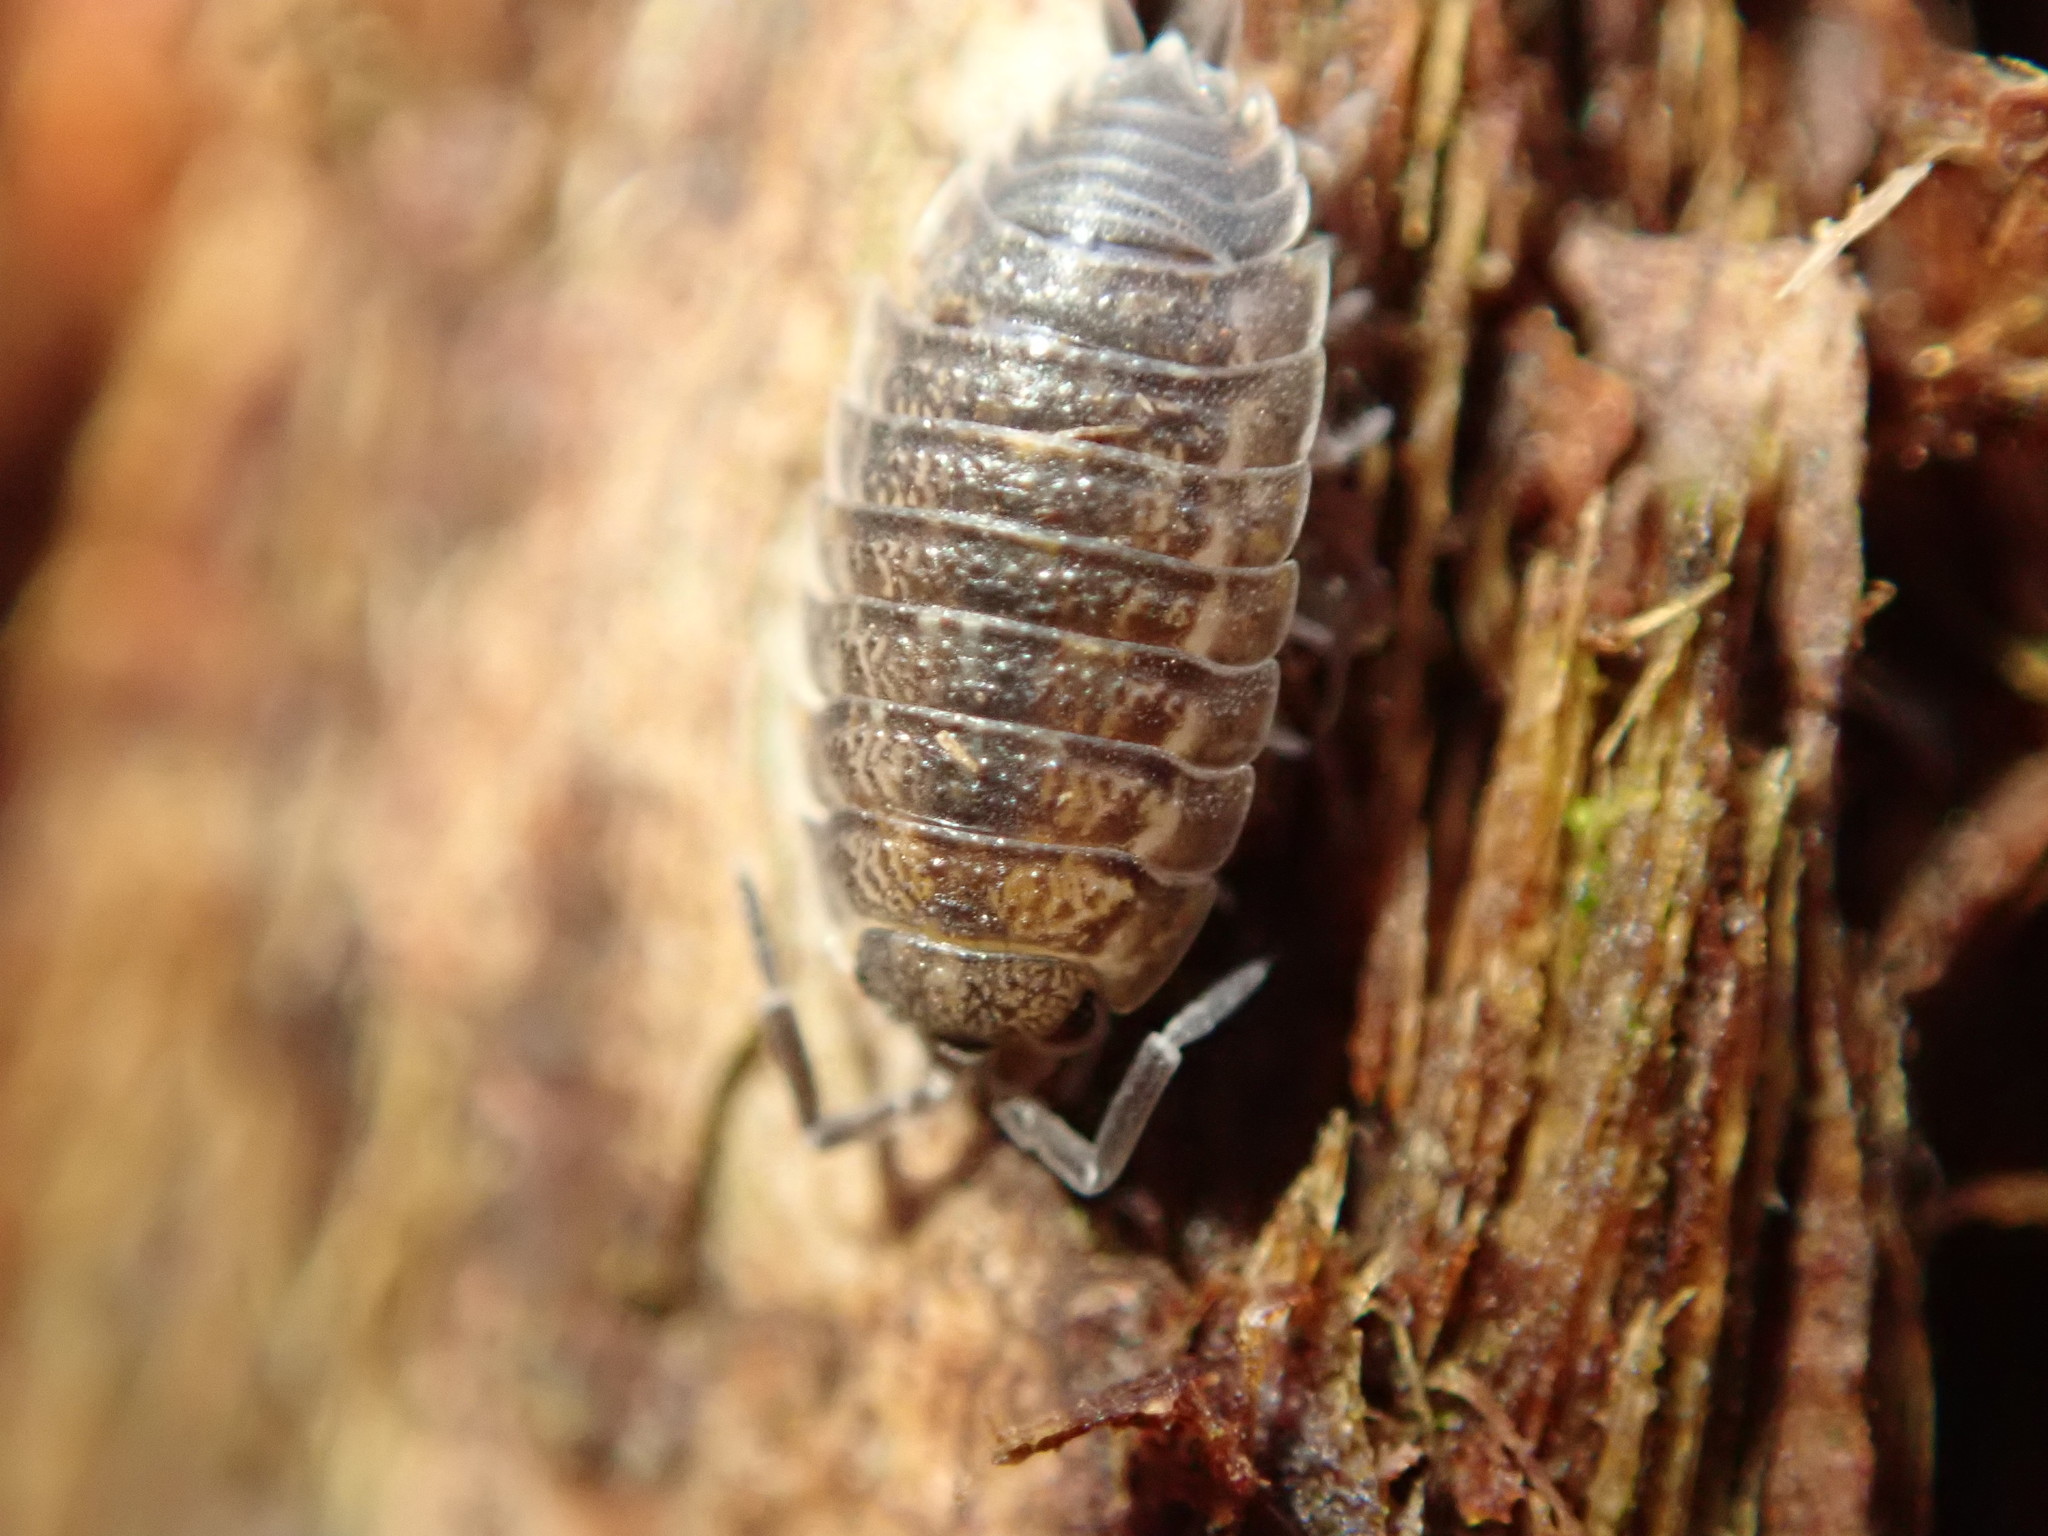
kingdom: Animalia
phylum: Arthropoda
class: Malacostraca
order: Isopoda
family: Trachelipodidae
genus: Trachelipus
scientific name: Trachelipus rathkii
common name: Isopod
